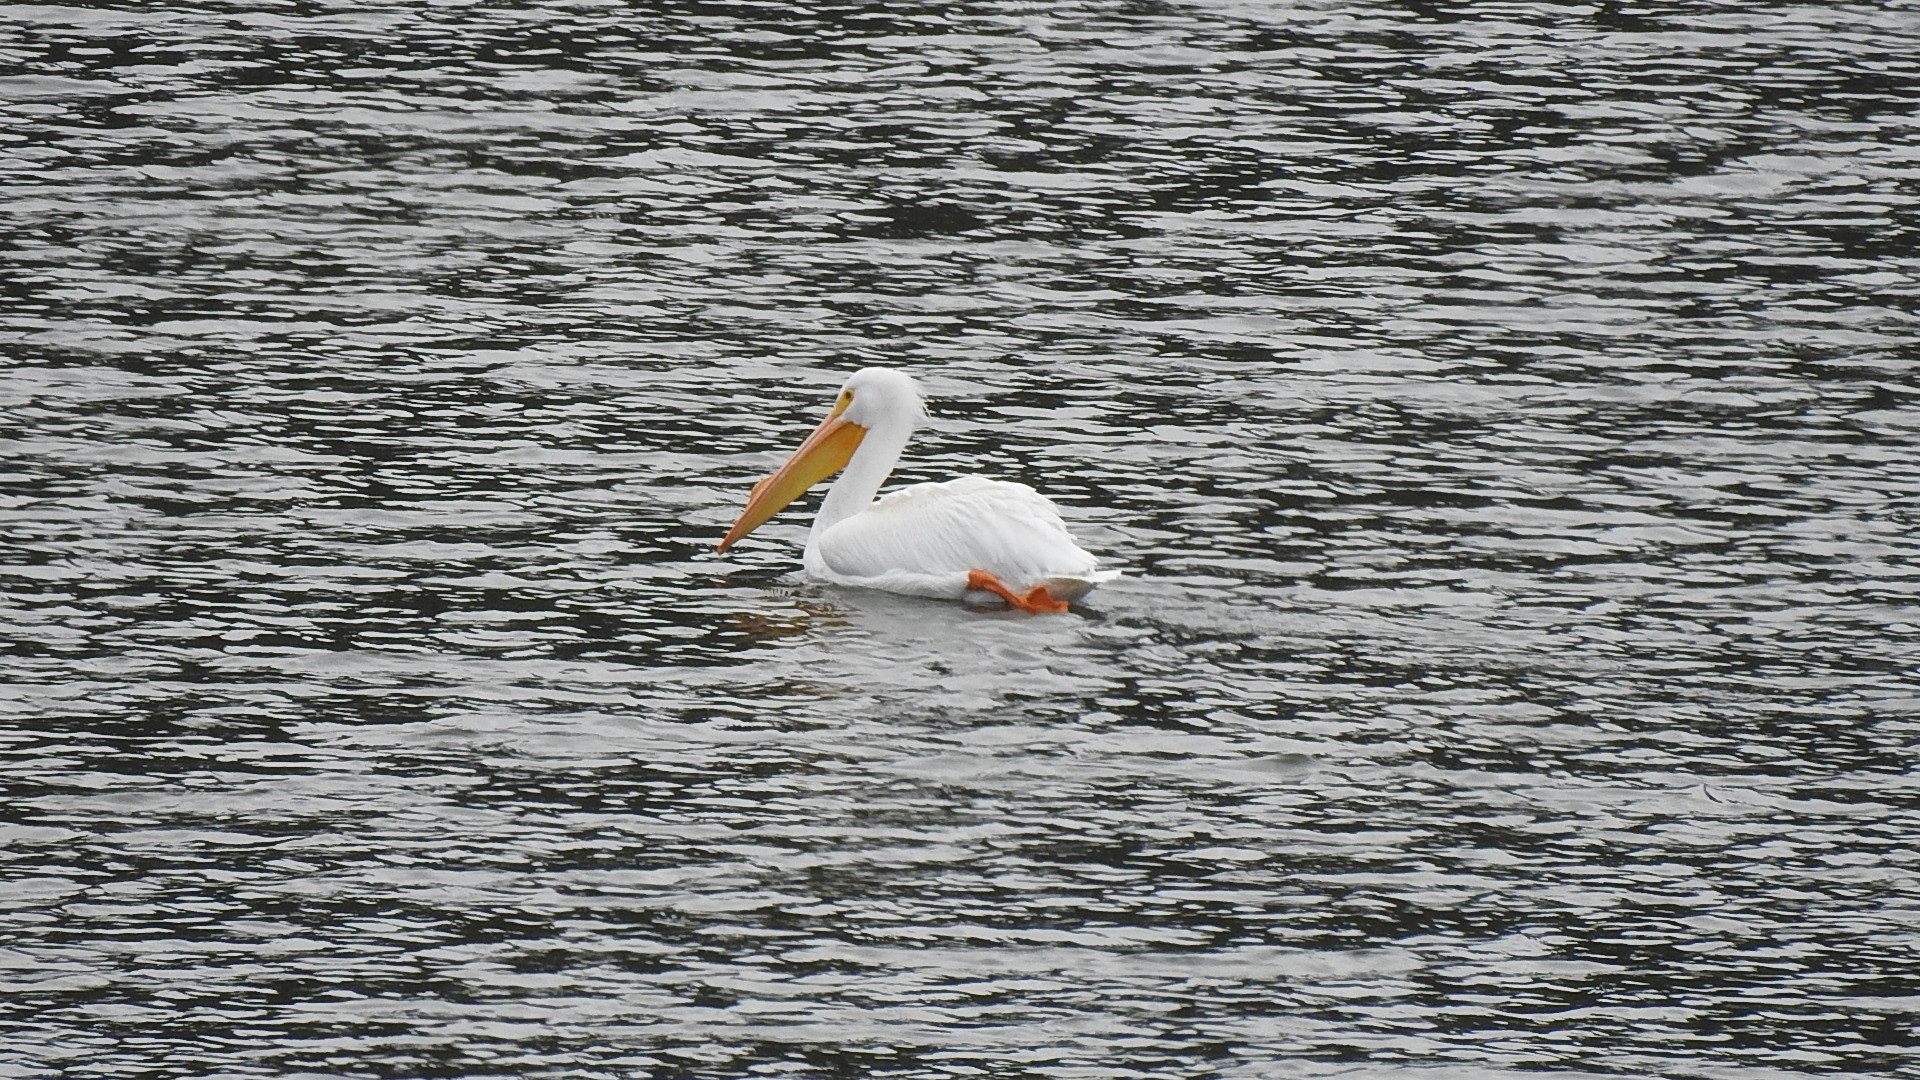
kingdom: Animalia
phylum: Chordata
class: Aves
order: Pelecaniformes
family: Pelecanidae
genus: Pelecanus
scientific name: Pelecanus erythrorhynchos
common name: American white pelican
